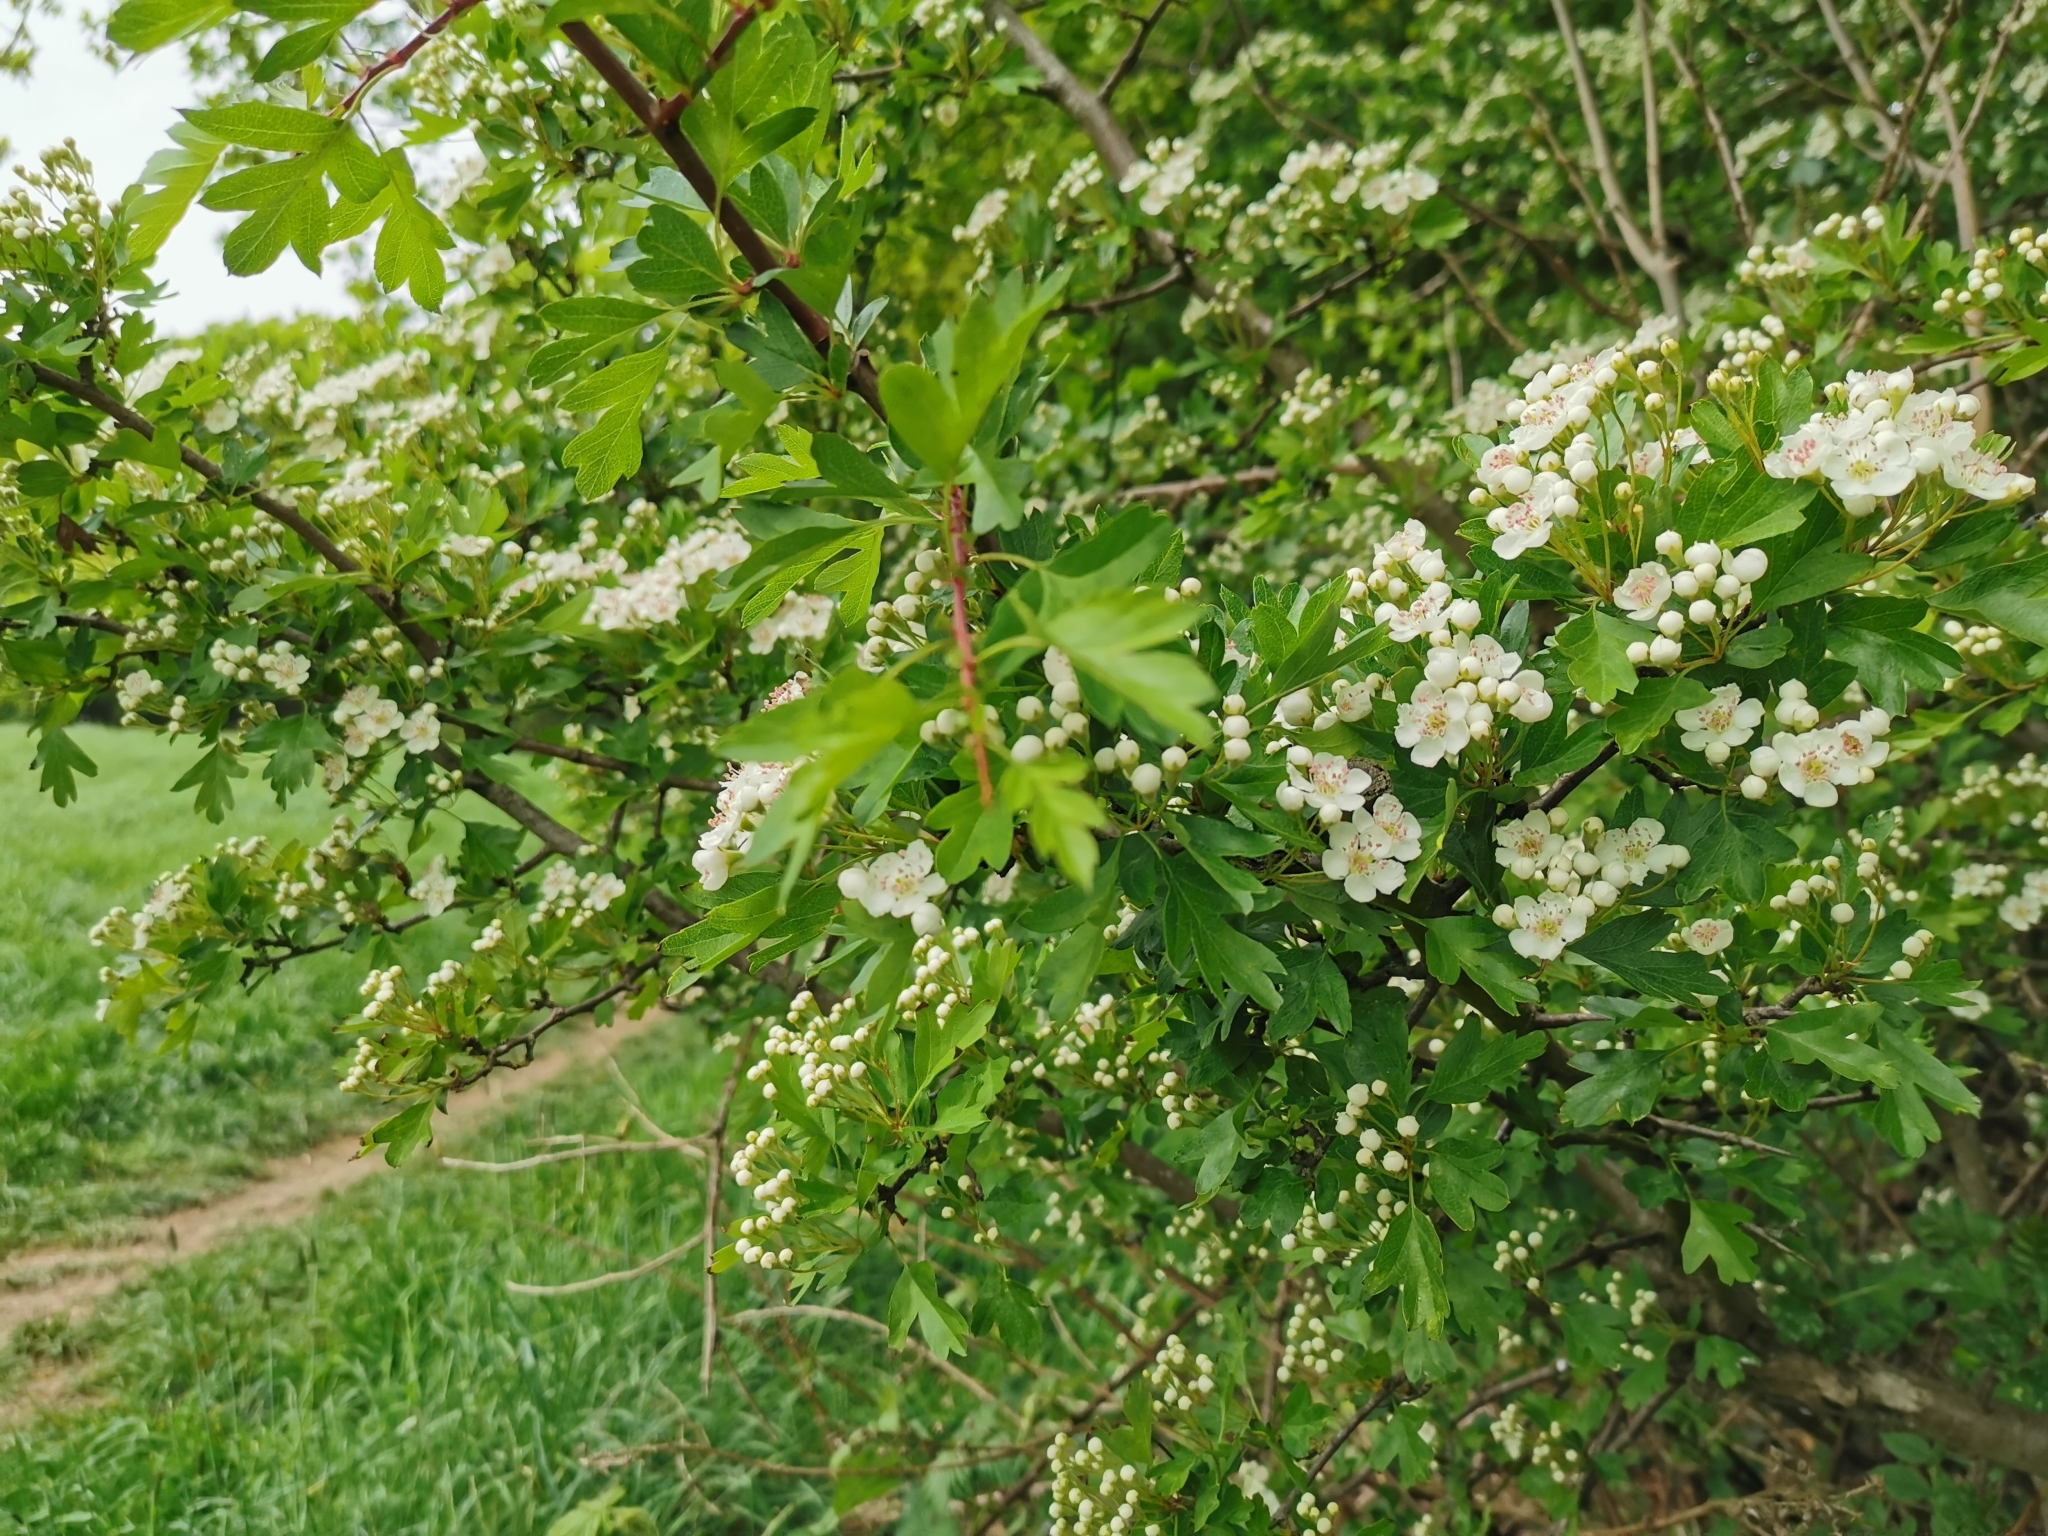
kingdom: Plantae
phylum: Tracheophyta
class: Magnoliopsida
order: Rosales
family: Rosaceae
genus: Crataegus
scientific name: Crataegus monogyna
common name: Hawthorn
